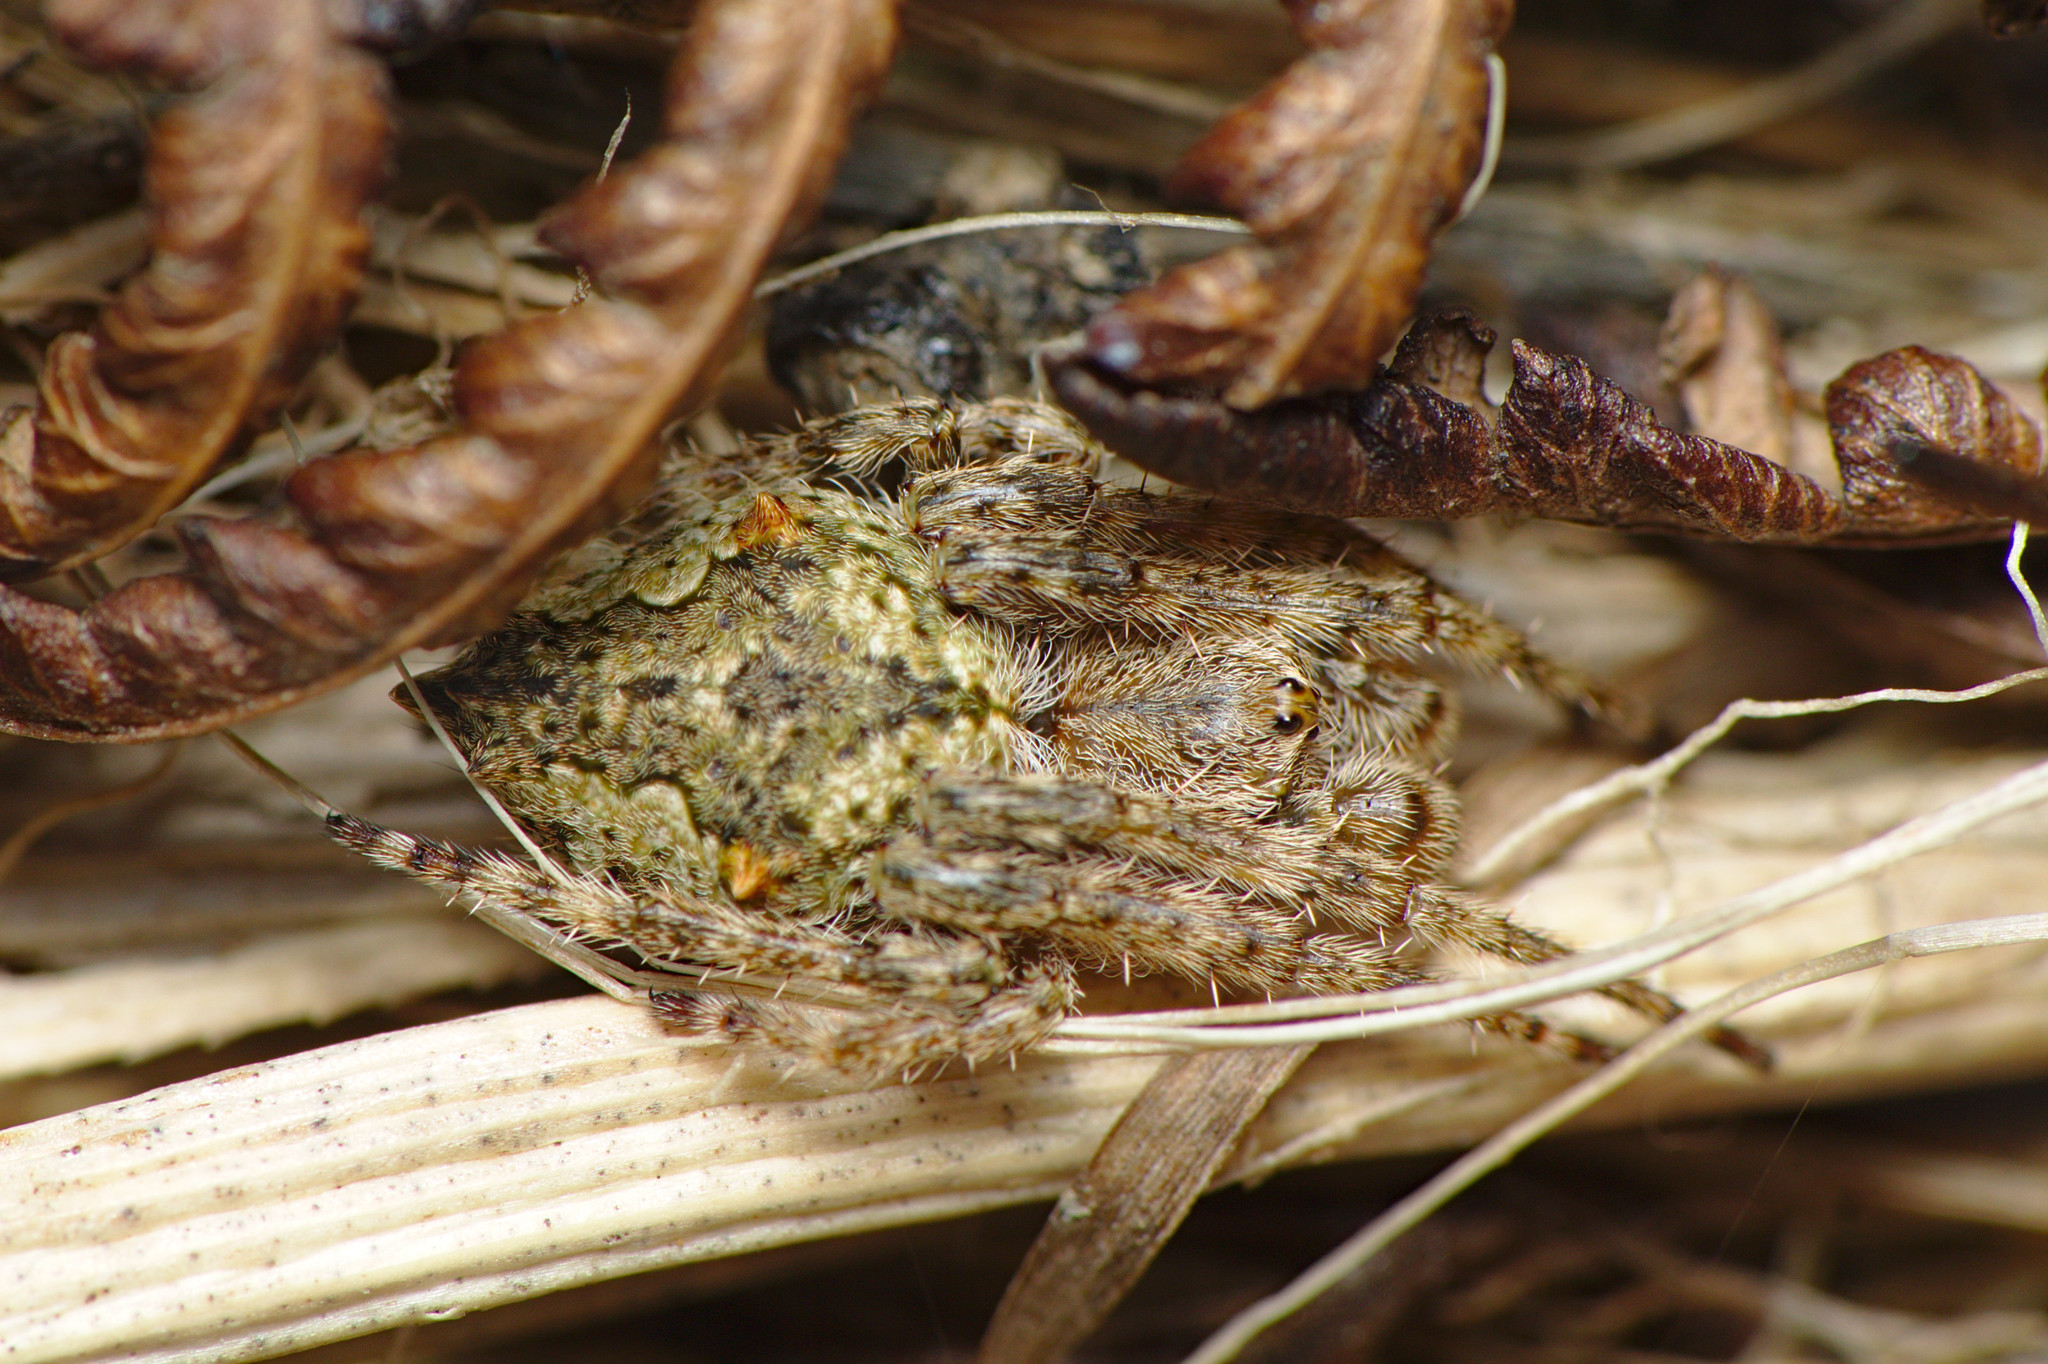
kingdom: Animalia
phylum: Arthropoda
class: Arachnida
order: Araneae
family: Araneidae
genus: Eriophora
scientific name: Eriophora pustulosa
